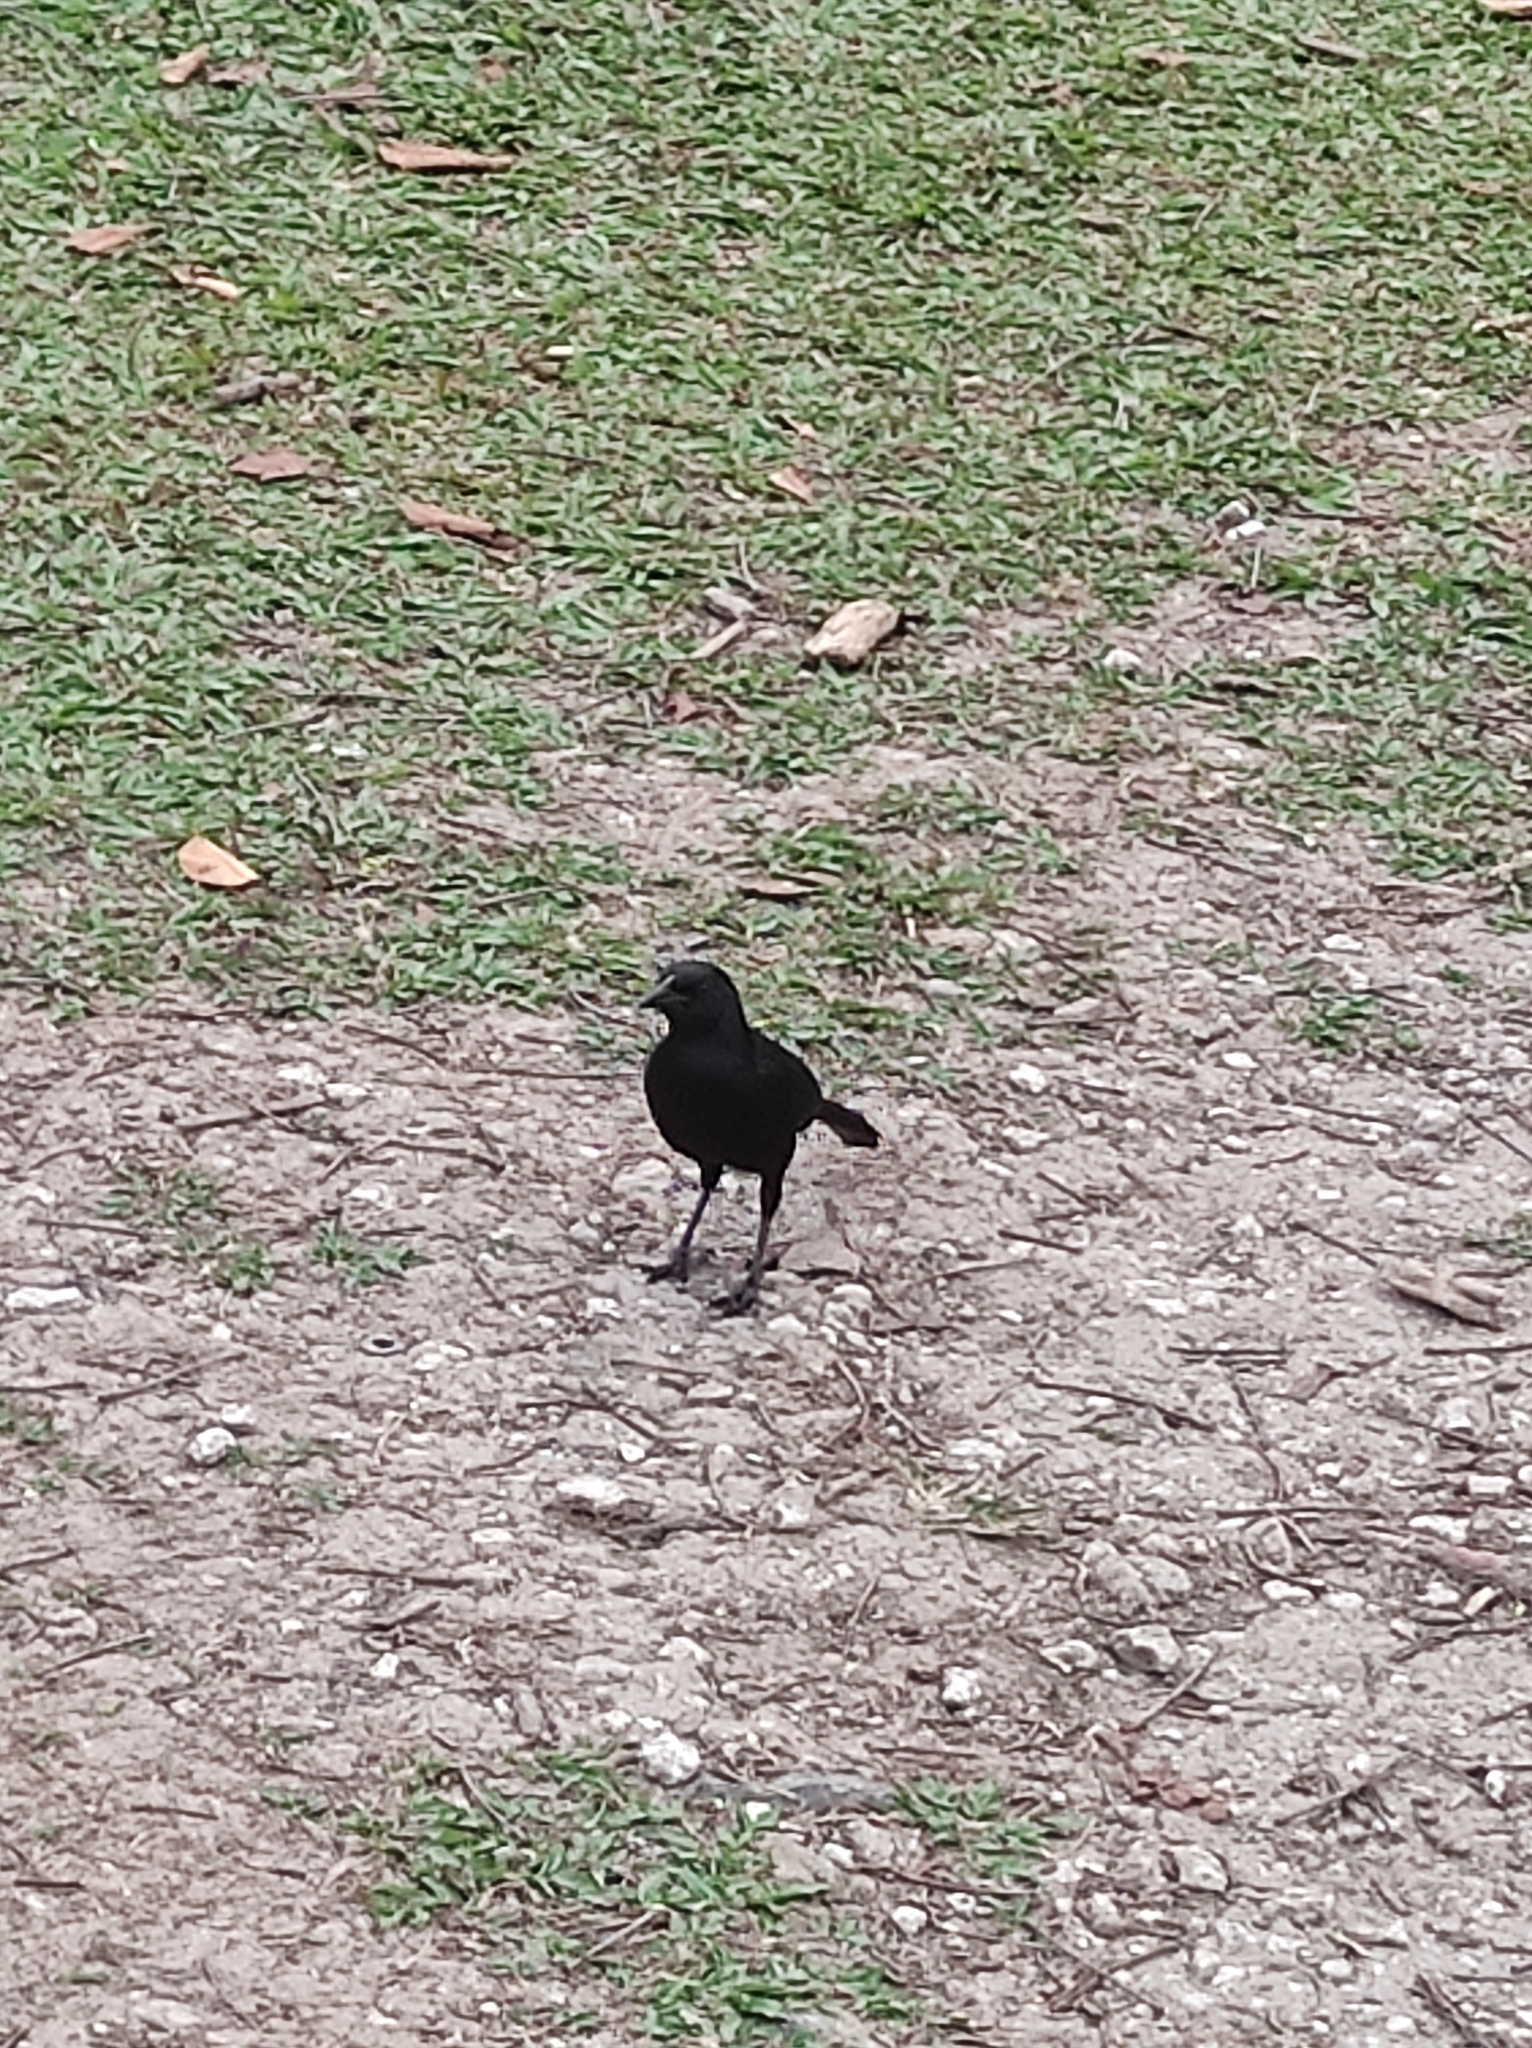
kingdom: Animalia
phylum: Chordata
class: Aves
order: Passeriformes
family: Icteridae
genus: Dives
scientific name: Dives dives
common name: Melodious blackbird
